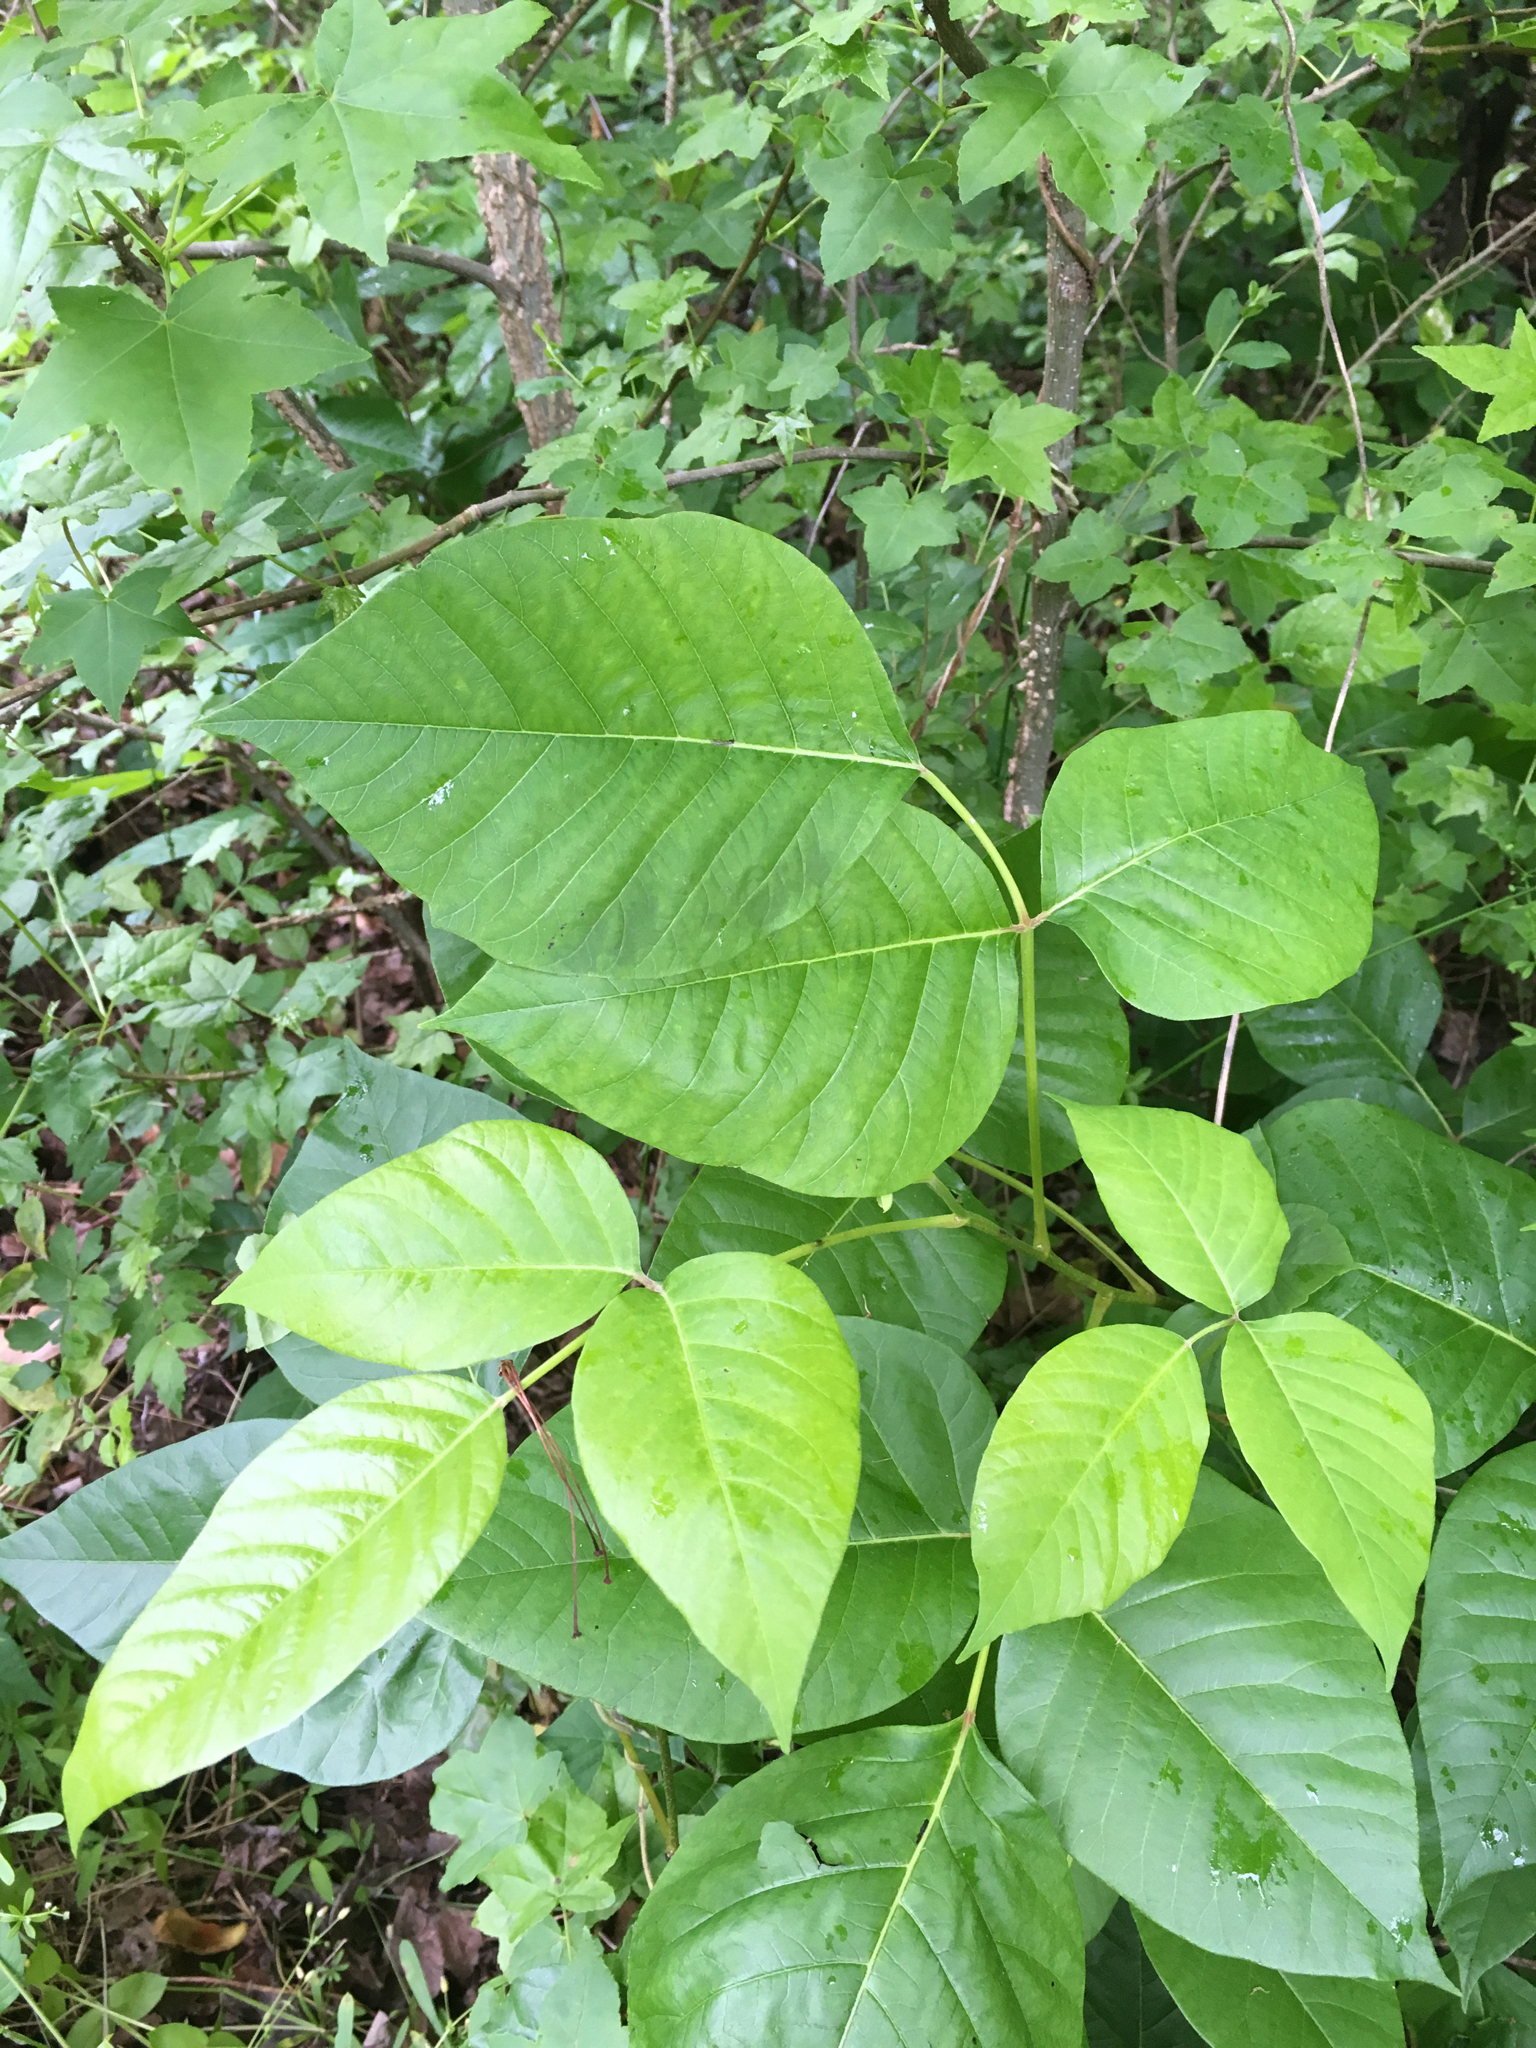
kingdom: Plantae
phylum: Tracheophyta
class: Magnoliopsida
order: Sapindales
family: Anacardiaceae
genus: Toxicodendron
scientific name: Toxicodendron radicans
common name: Poison ivy
